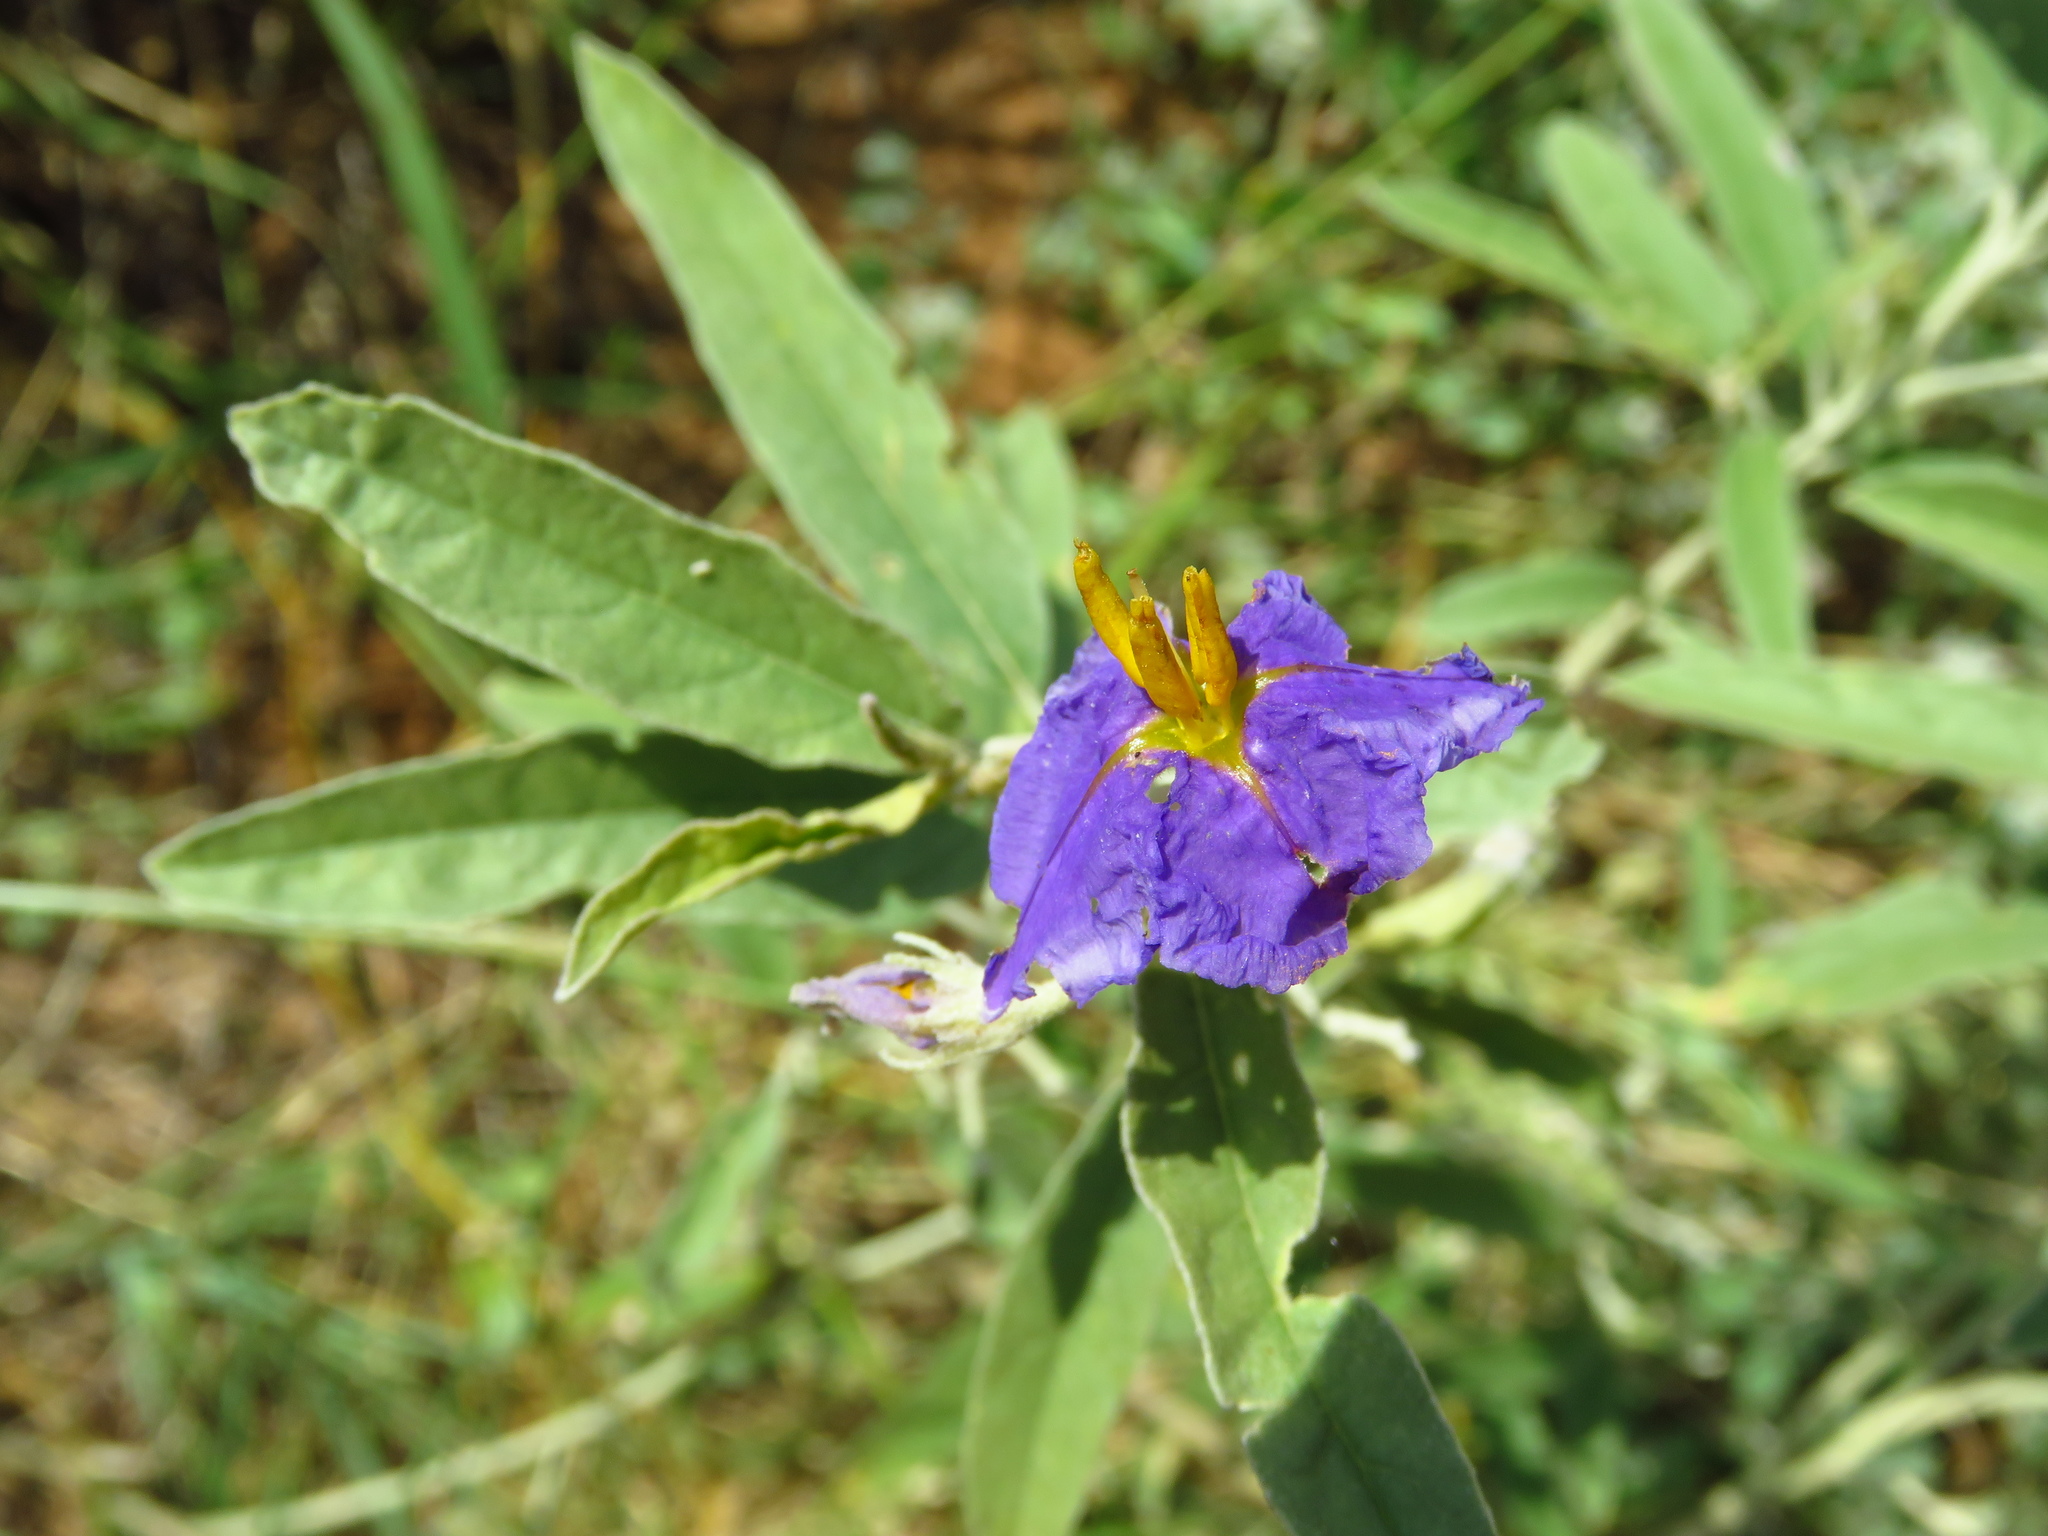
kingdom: Plantae
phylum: Tracheophyta
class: Magnoliopsida
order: Solanales
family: Solanaceae
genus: Solanum
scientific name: Solanum elaeagnifolium
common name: Silverleaf nightshade
